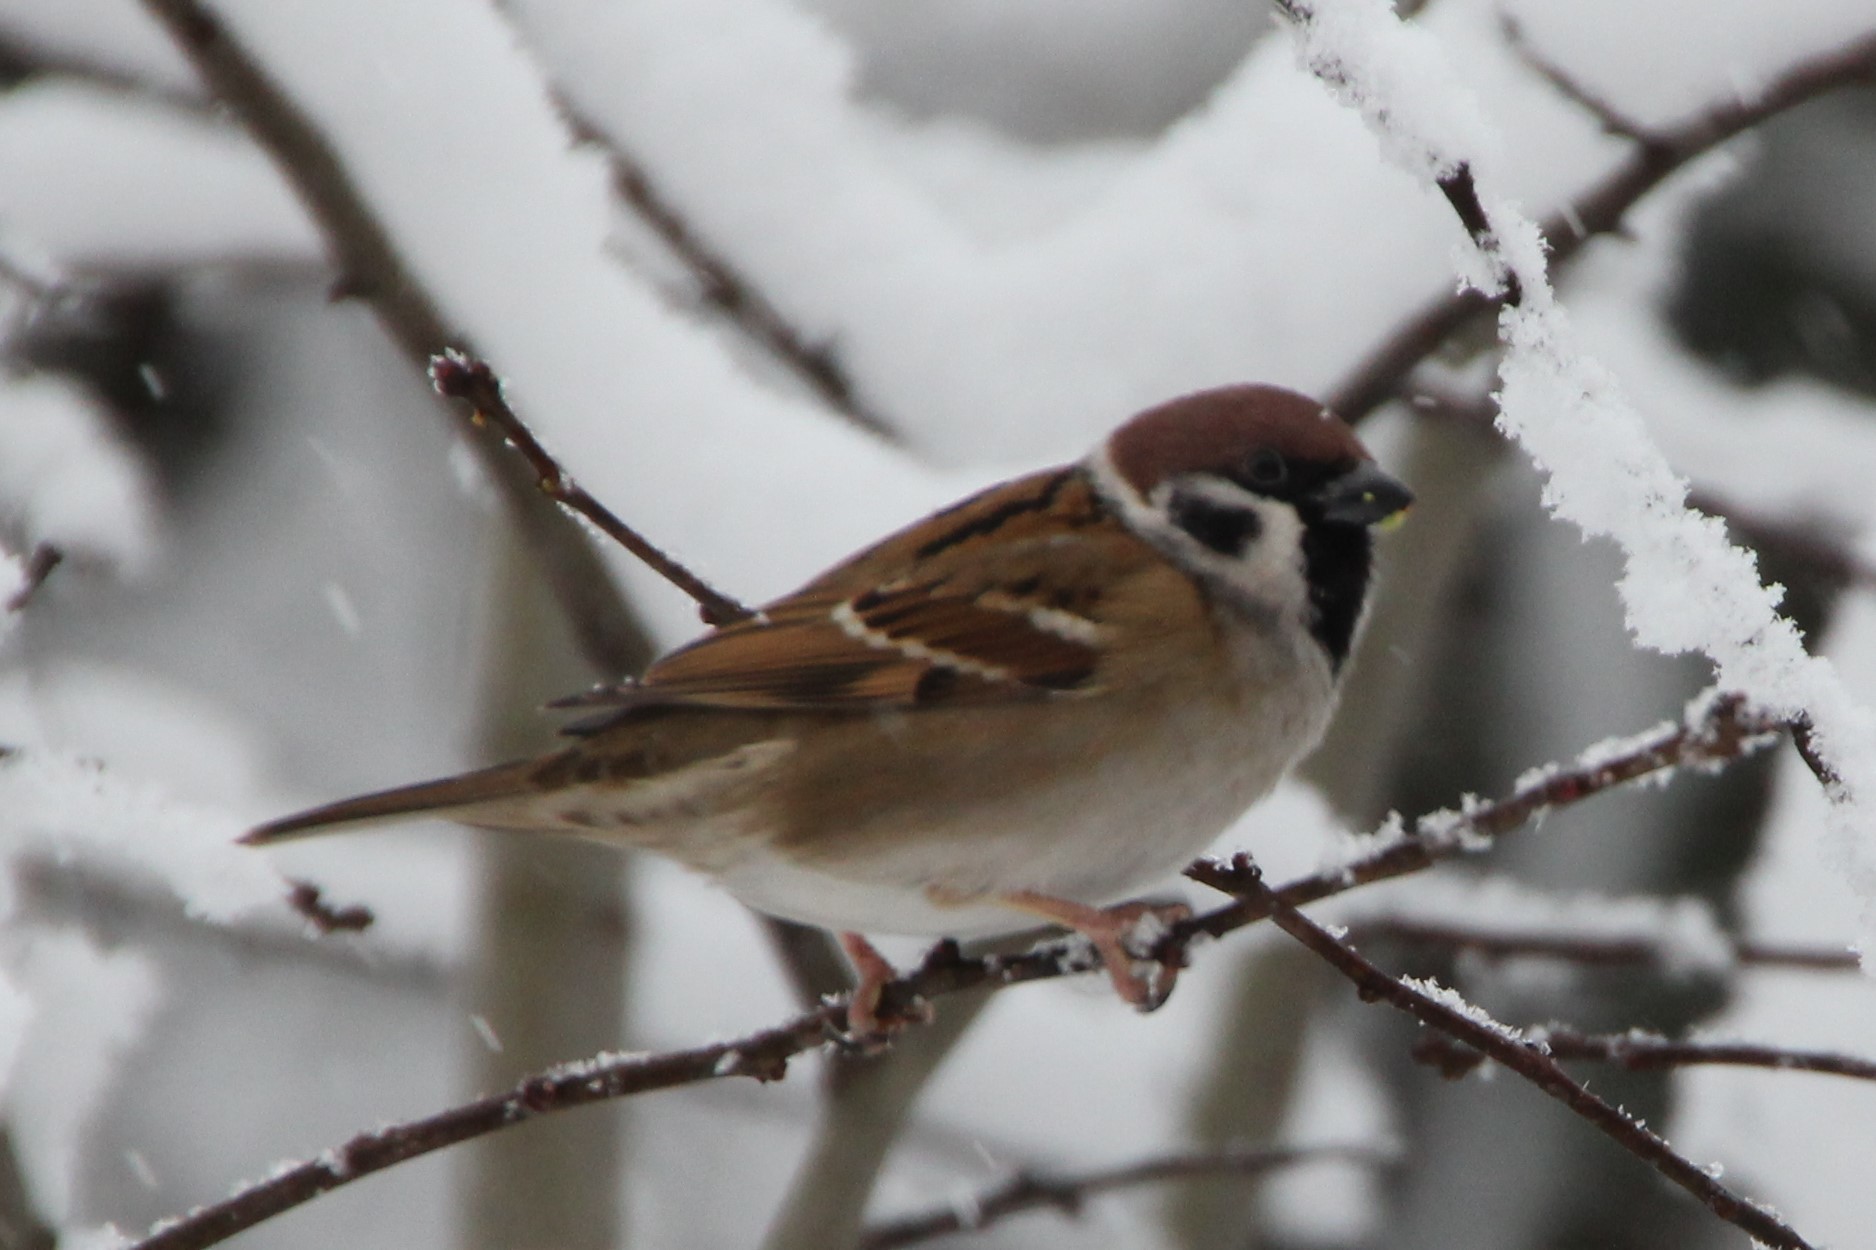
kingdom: Animalia
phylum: Chordata
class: Aves
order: Passeriformes
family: Passeridae
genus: Passer
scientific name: Passer montanus
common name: Eurasian tree sparrow
